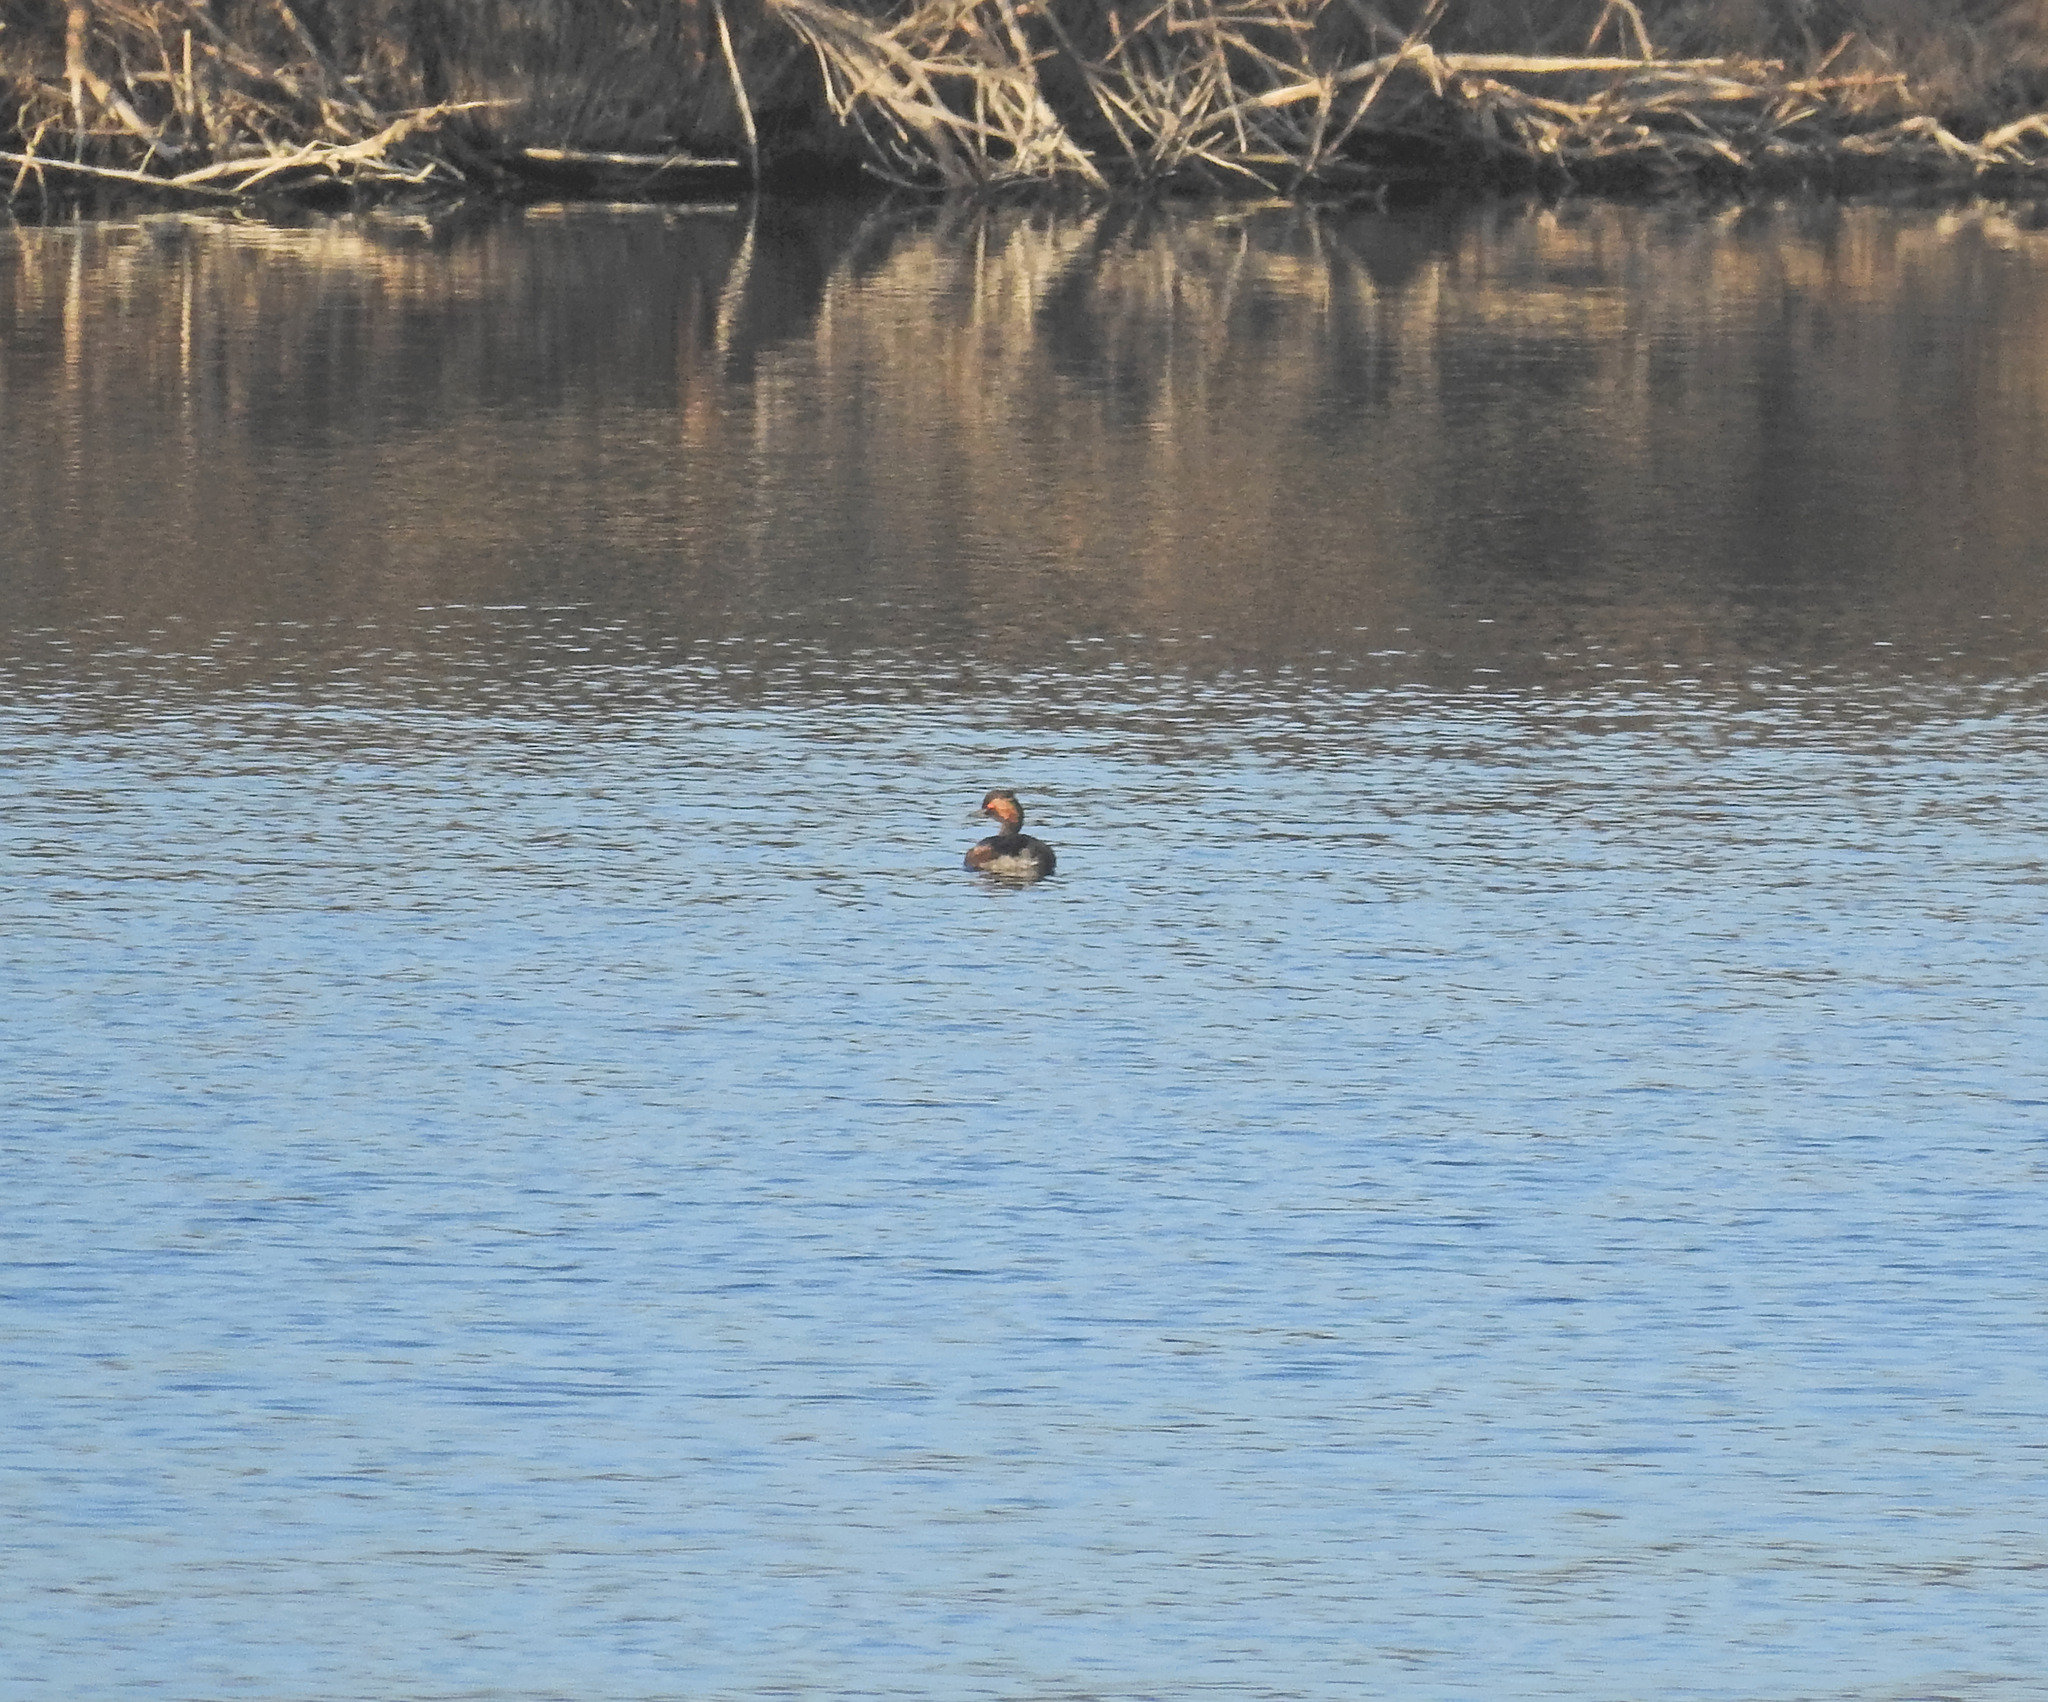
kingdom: Animalia
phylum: Chordata
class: Aves
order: Podicipediformes
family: Podicipedidae
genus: Podiceps
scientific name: Podiceps nigricollis
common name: Black-necked grebe
